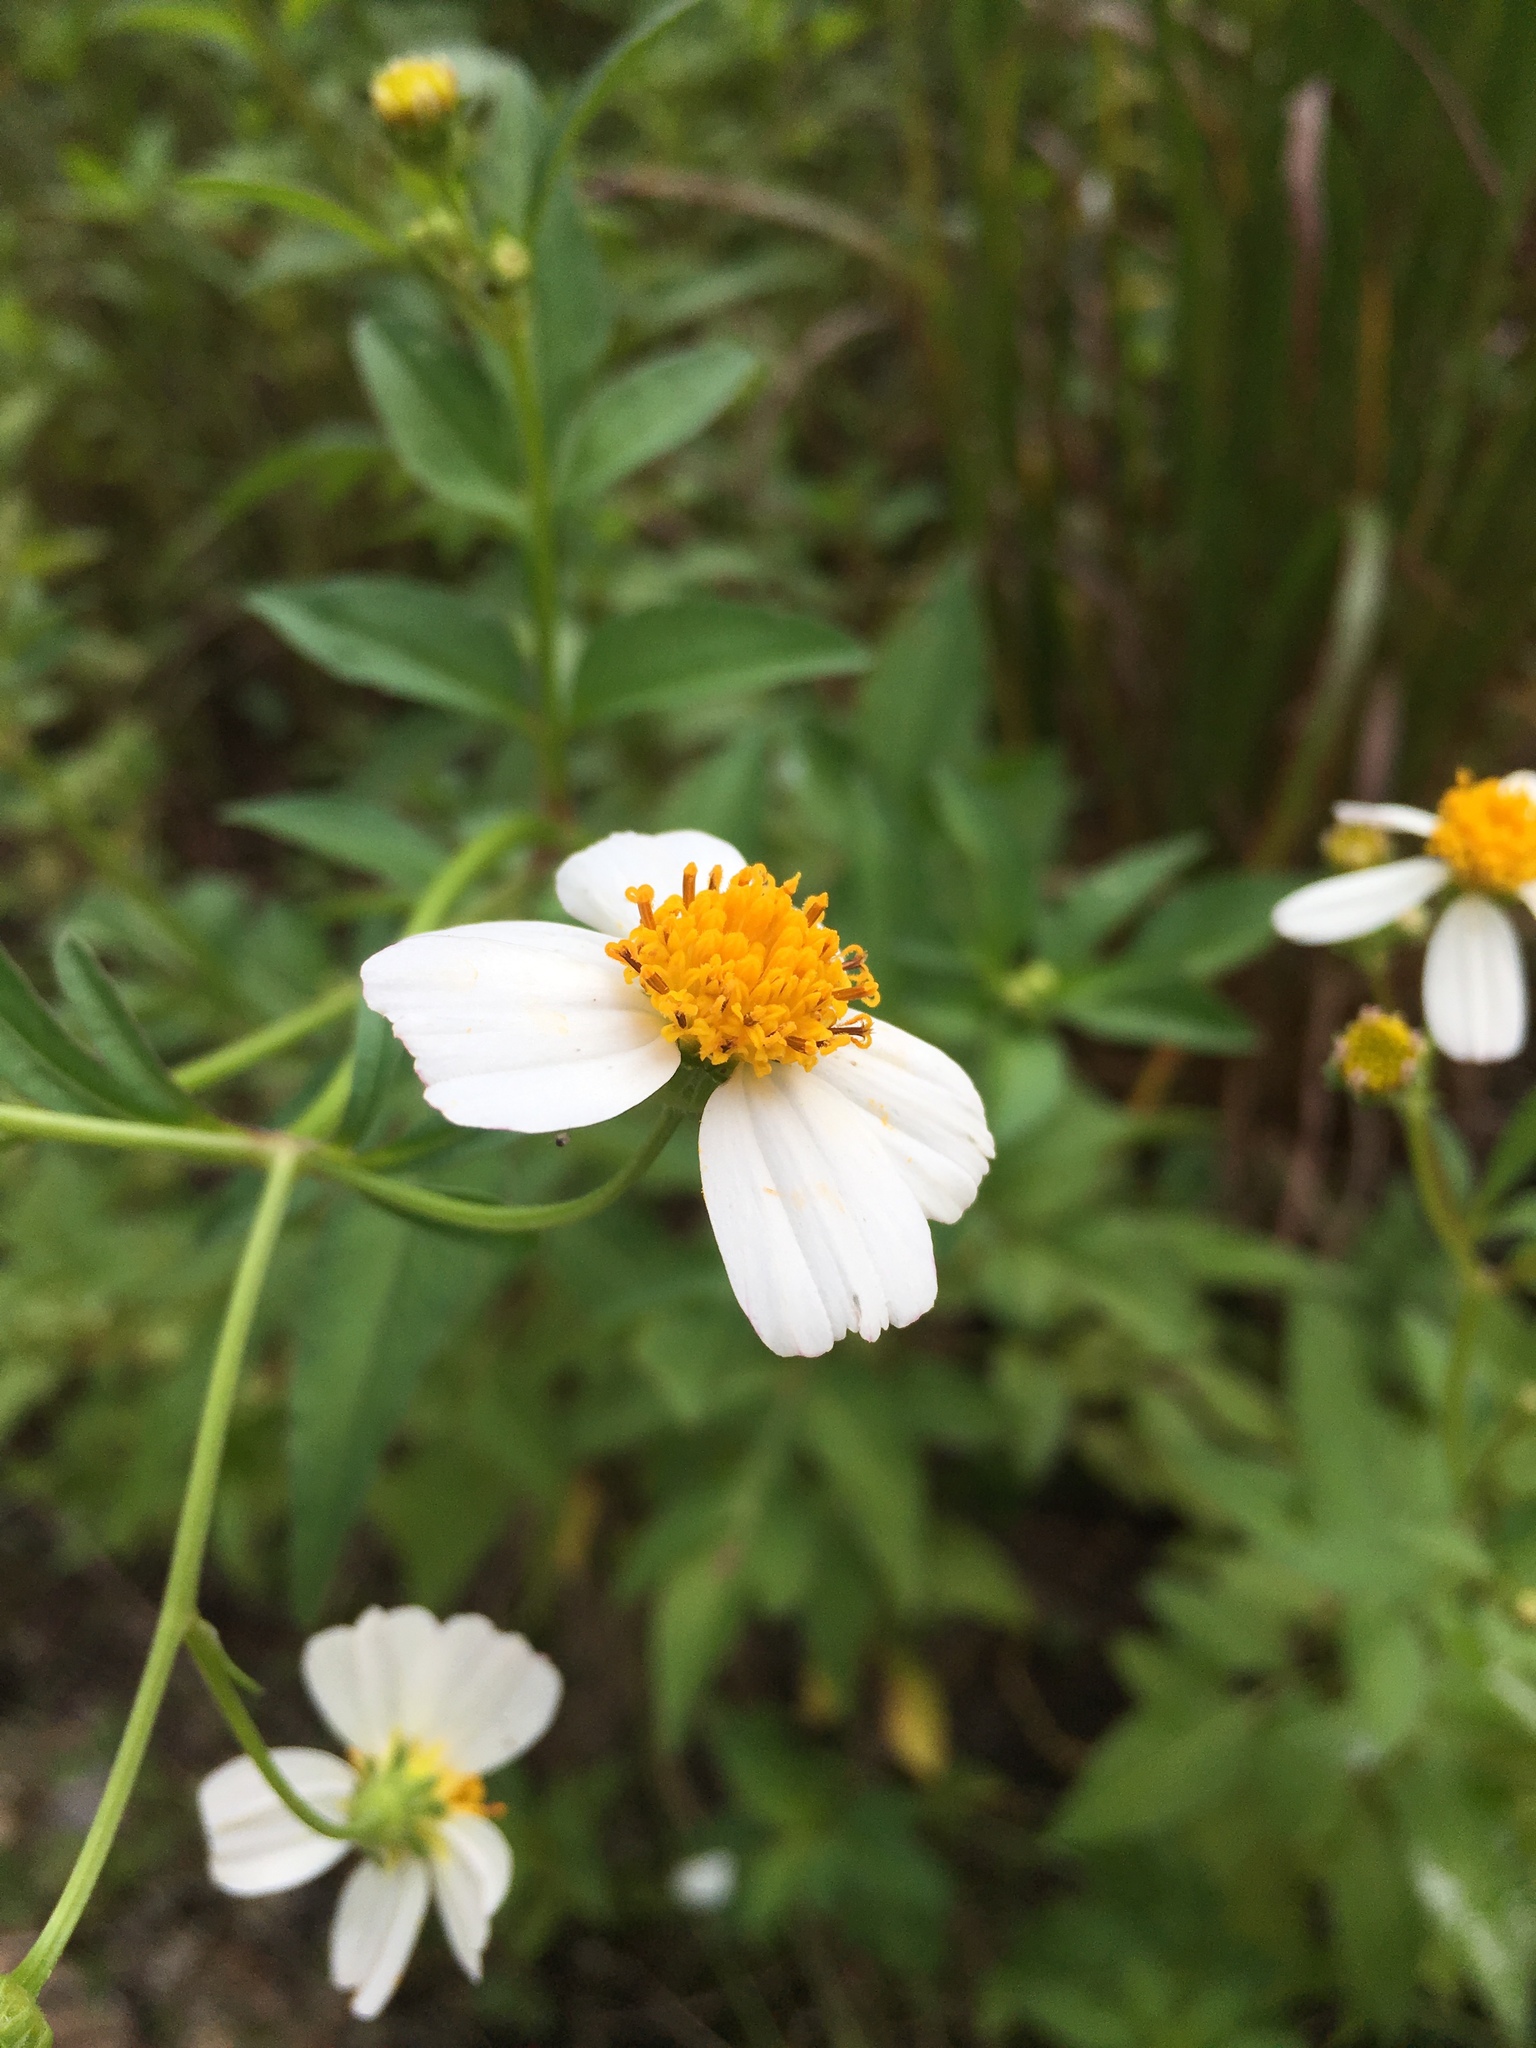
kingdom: Plantae
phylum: Tracheophyta
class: Magnoliopsida
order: Asterales
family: Asteraceae
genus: Bidens
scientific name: Bidens alba
